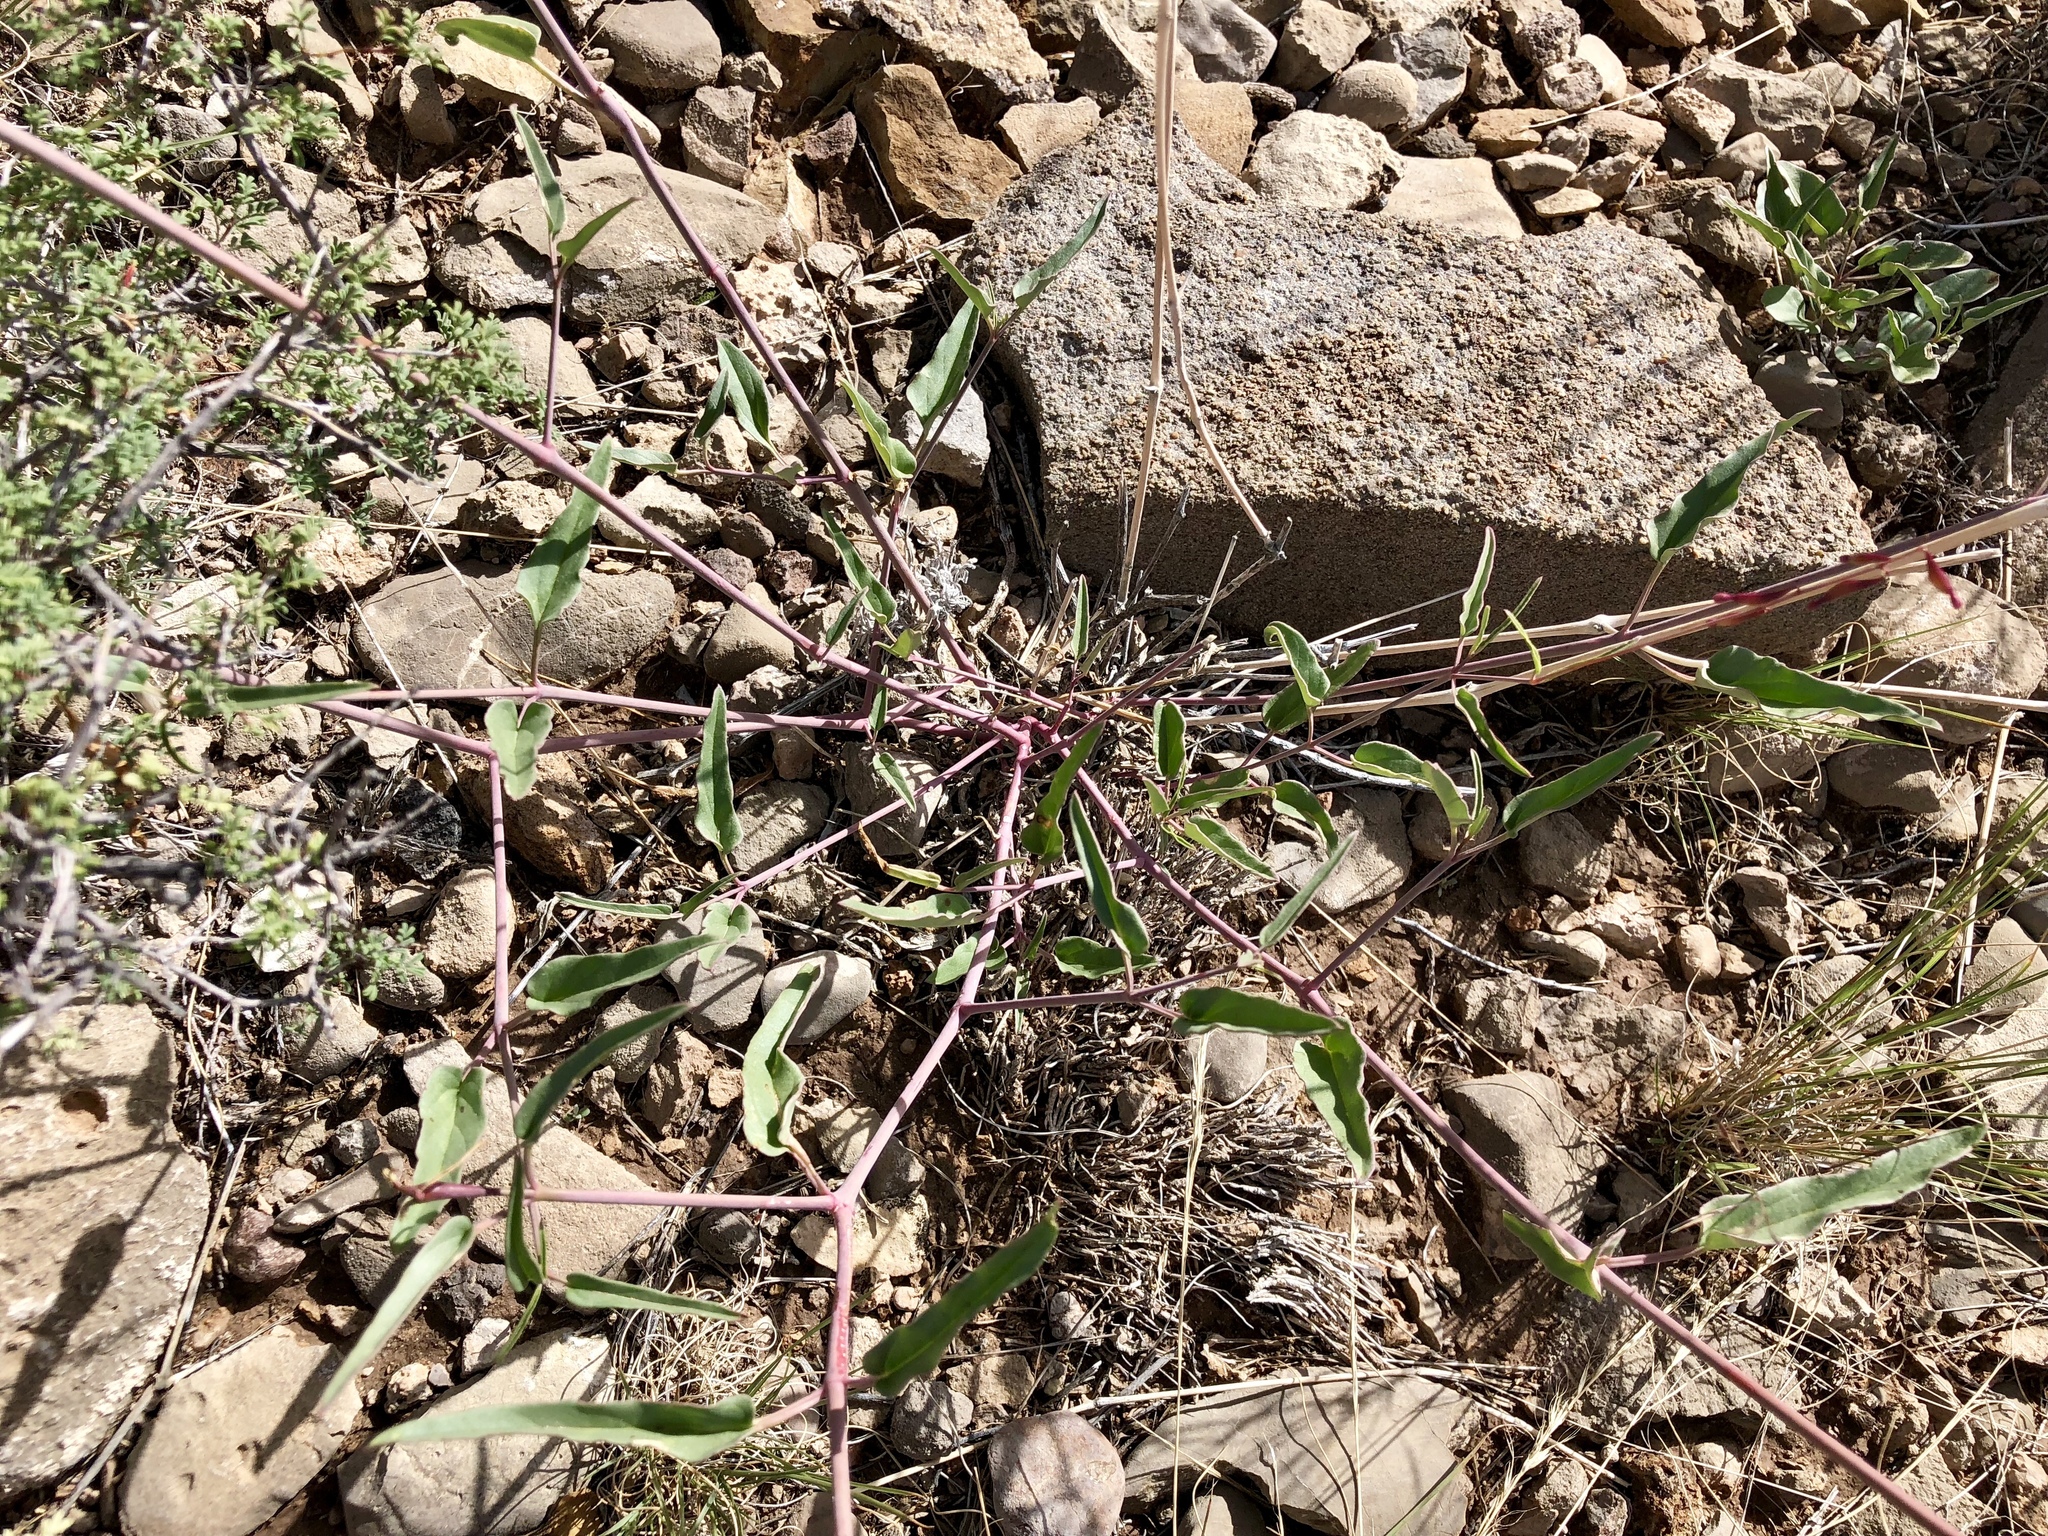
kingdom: Plantae
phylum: Tracheophyta
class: Magnoliopsida
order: Caryophyllales
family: Nyctaginaceae
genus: Cyphomeris
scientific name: Cyphomeris gypsophiloides
